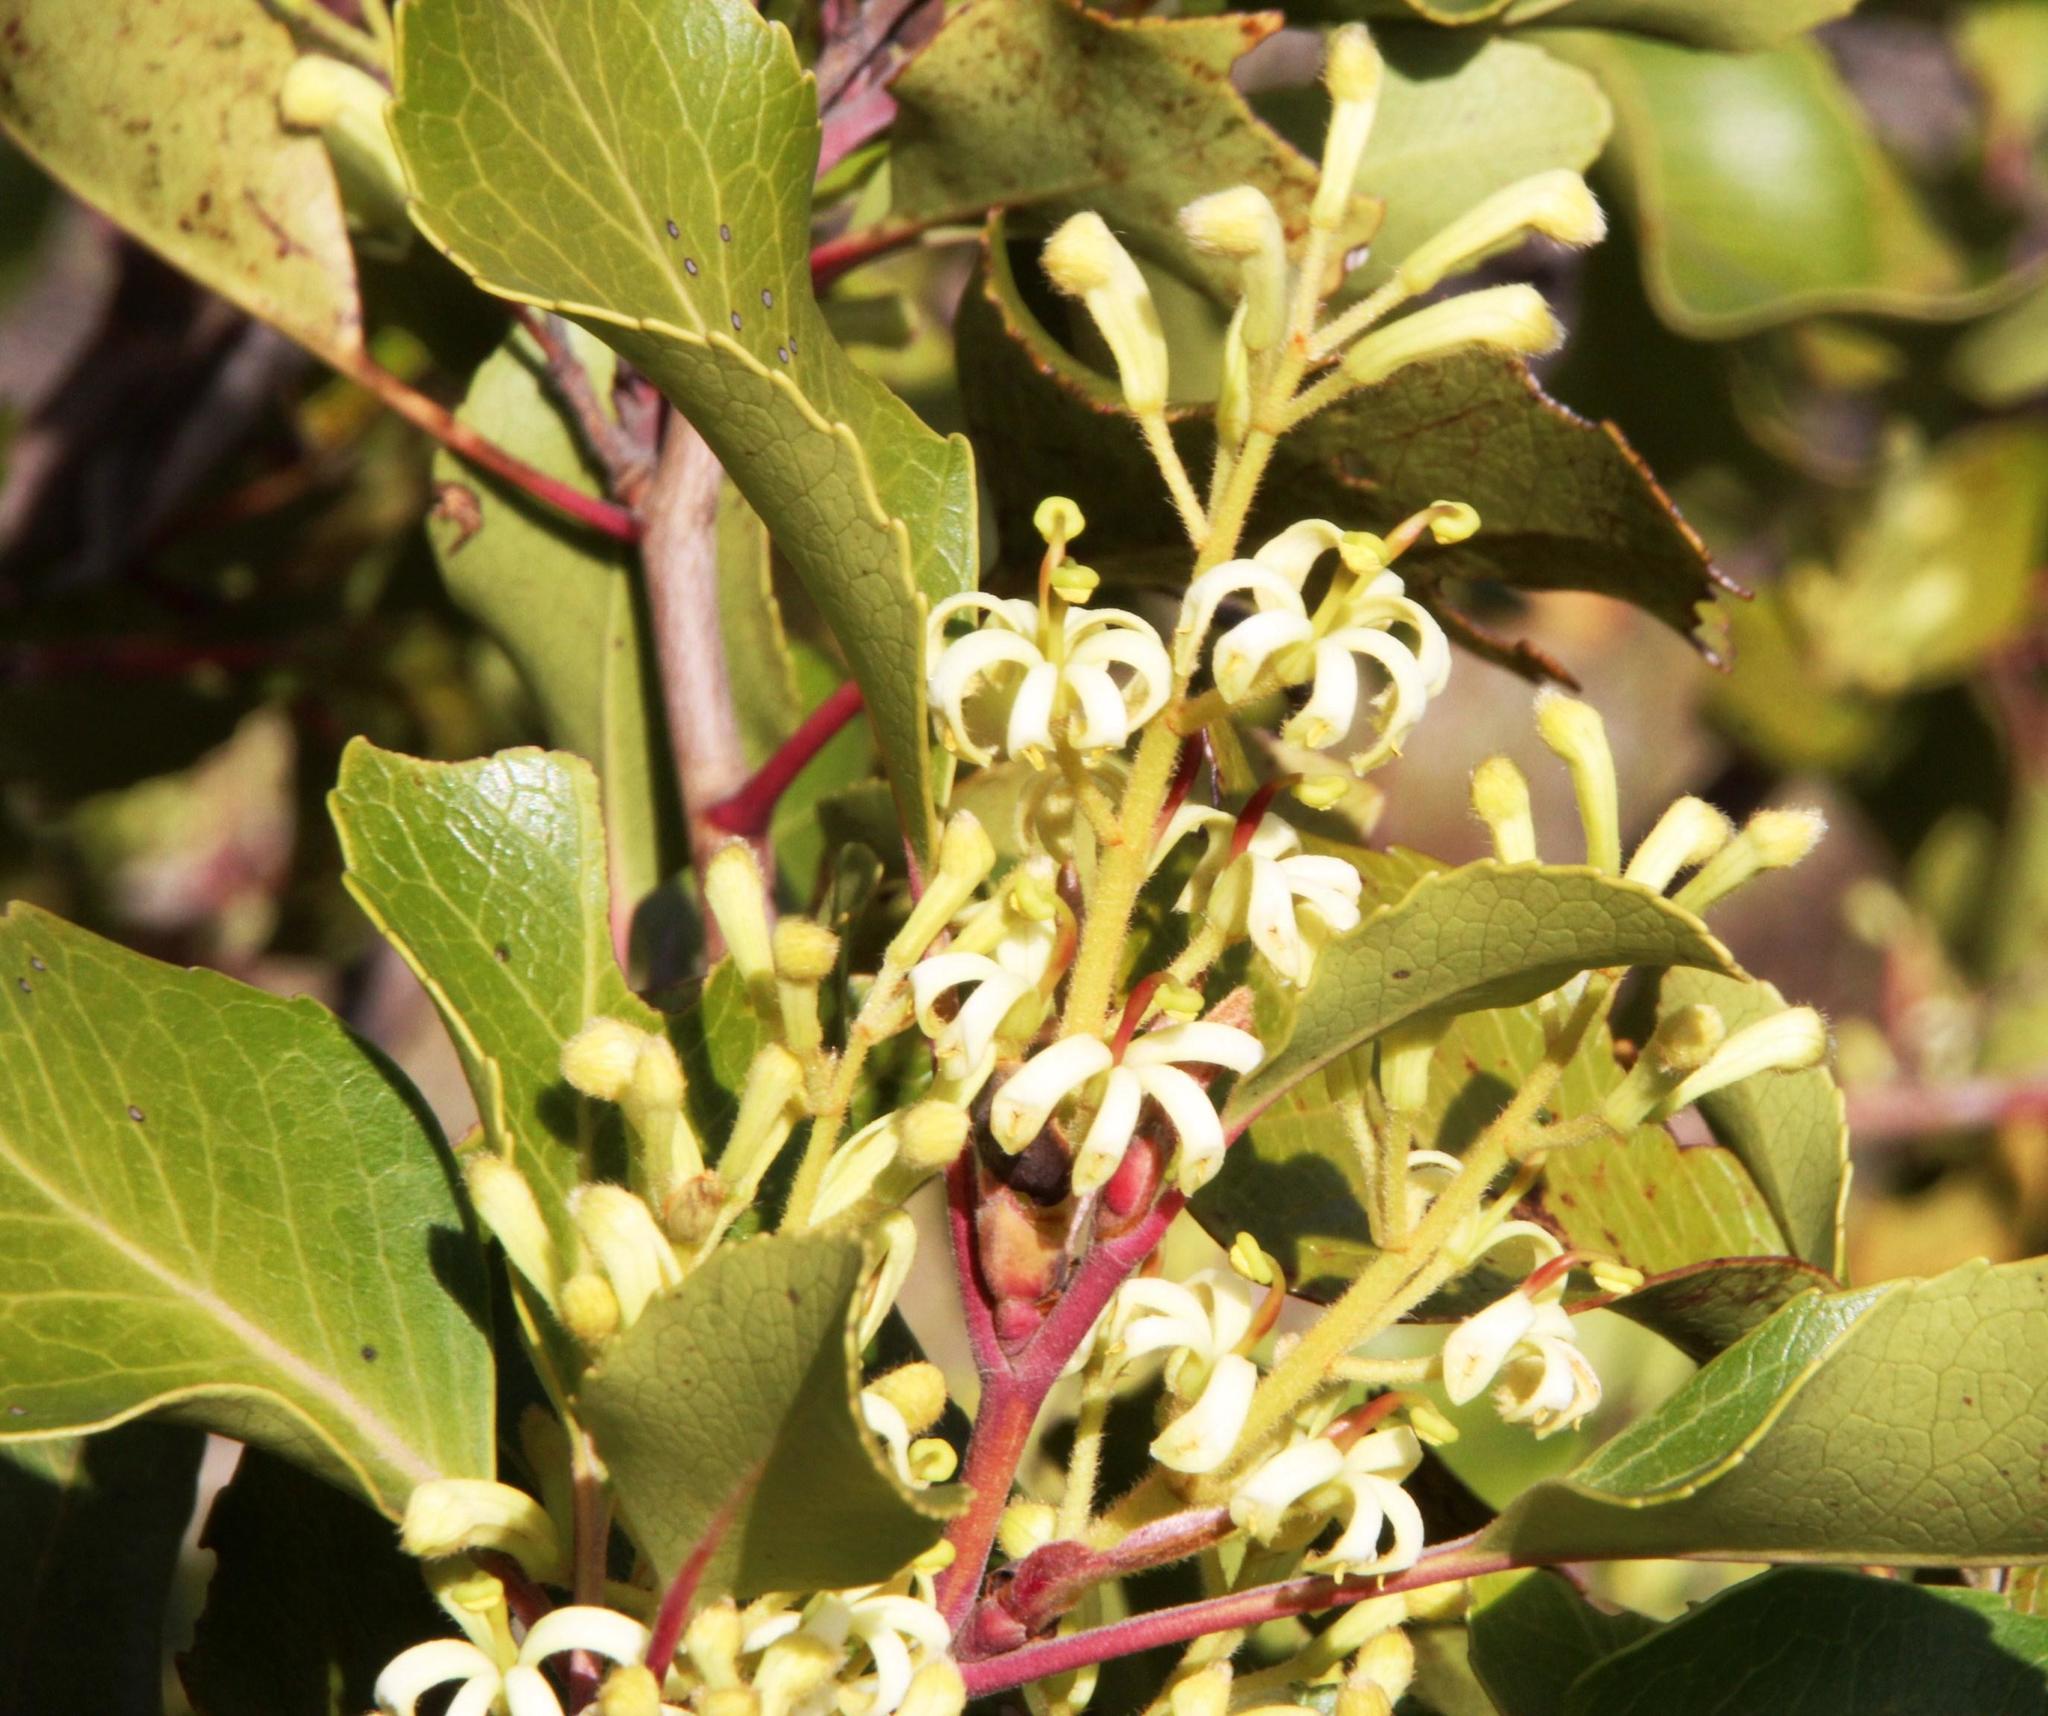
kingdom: Plantae
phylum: Tracheophyta
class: Magnoliopsida
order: Proteales
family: Proteaceae
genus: Lomatia
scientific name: Lomatia hirsuta
